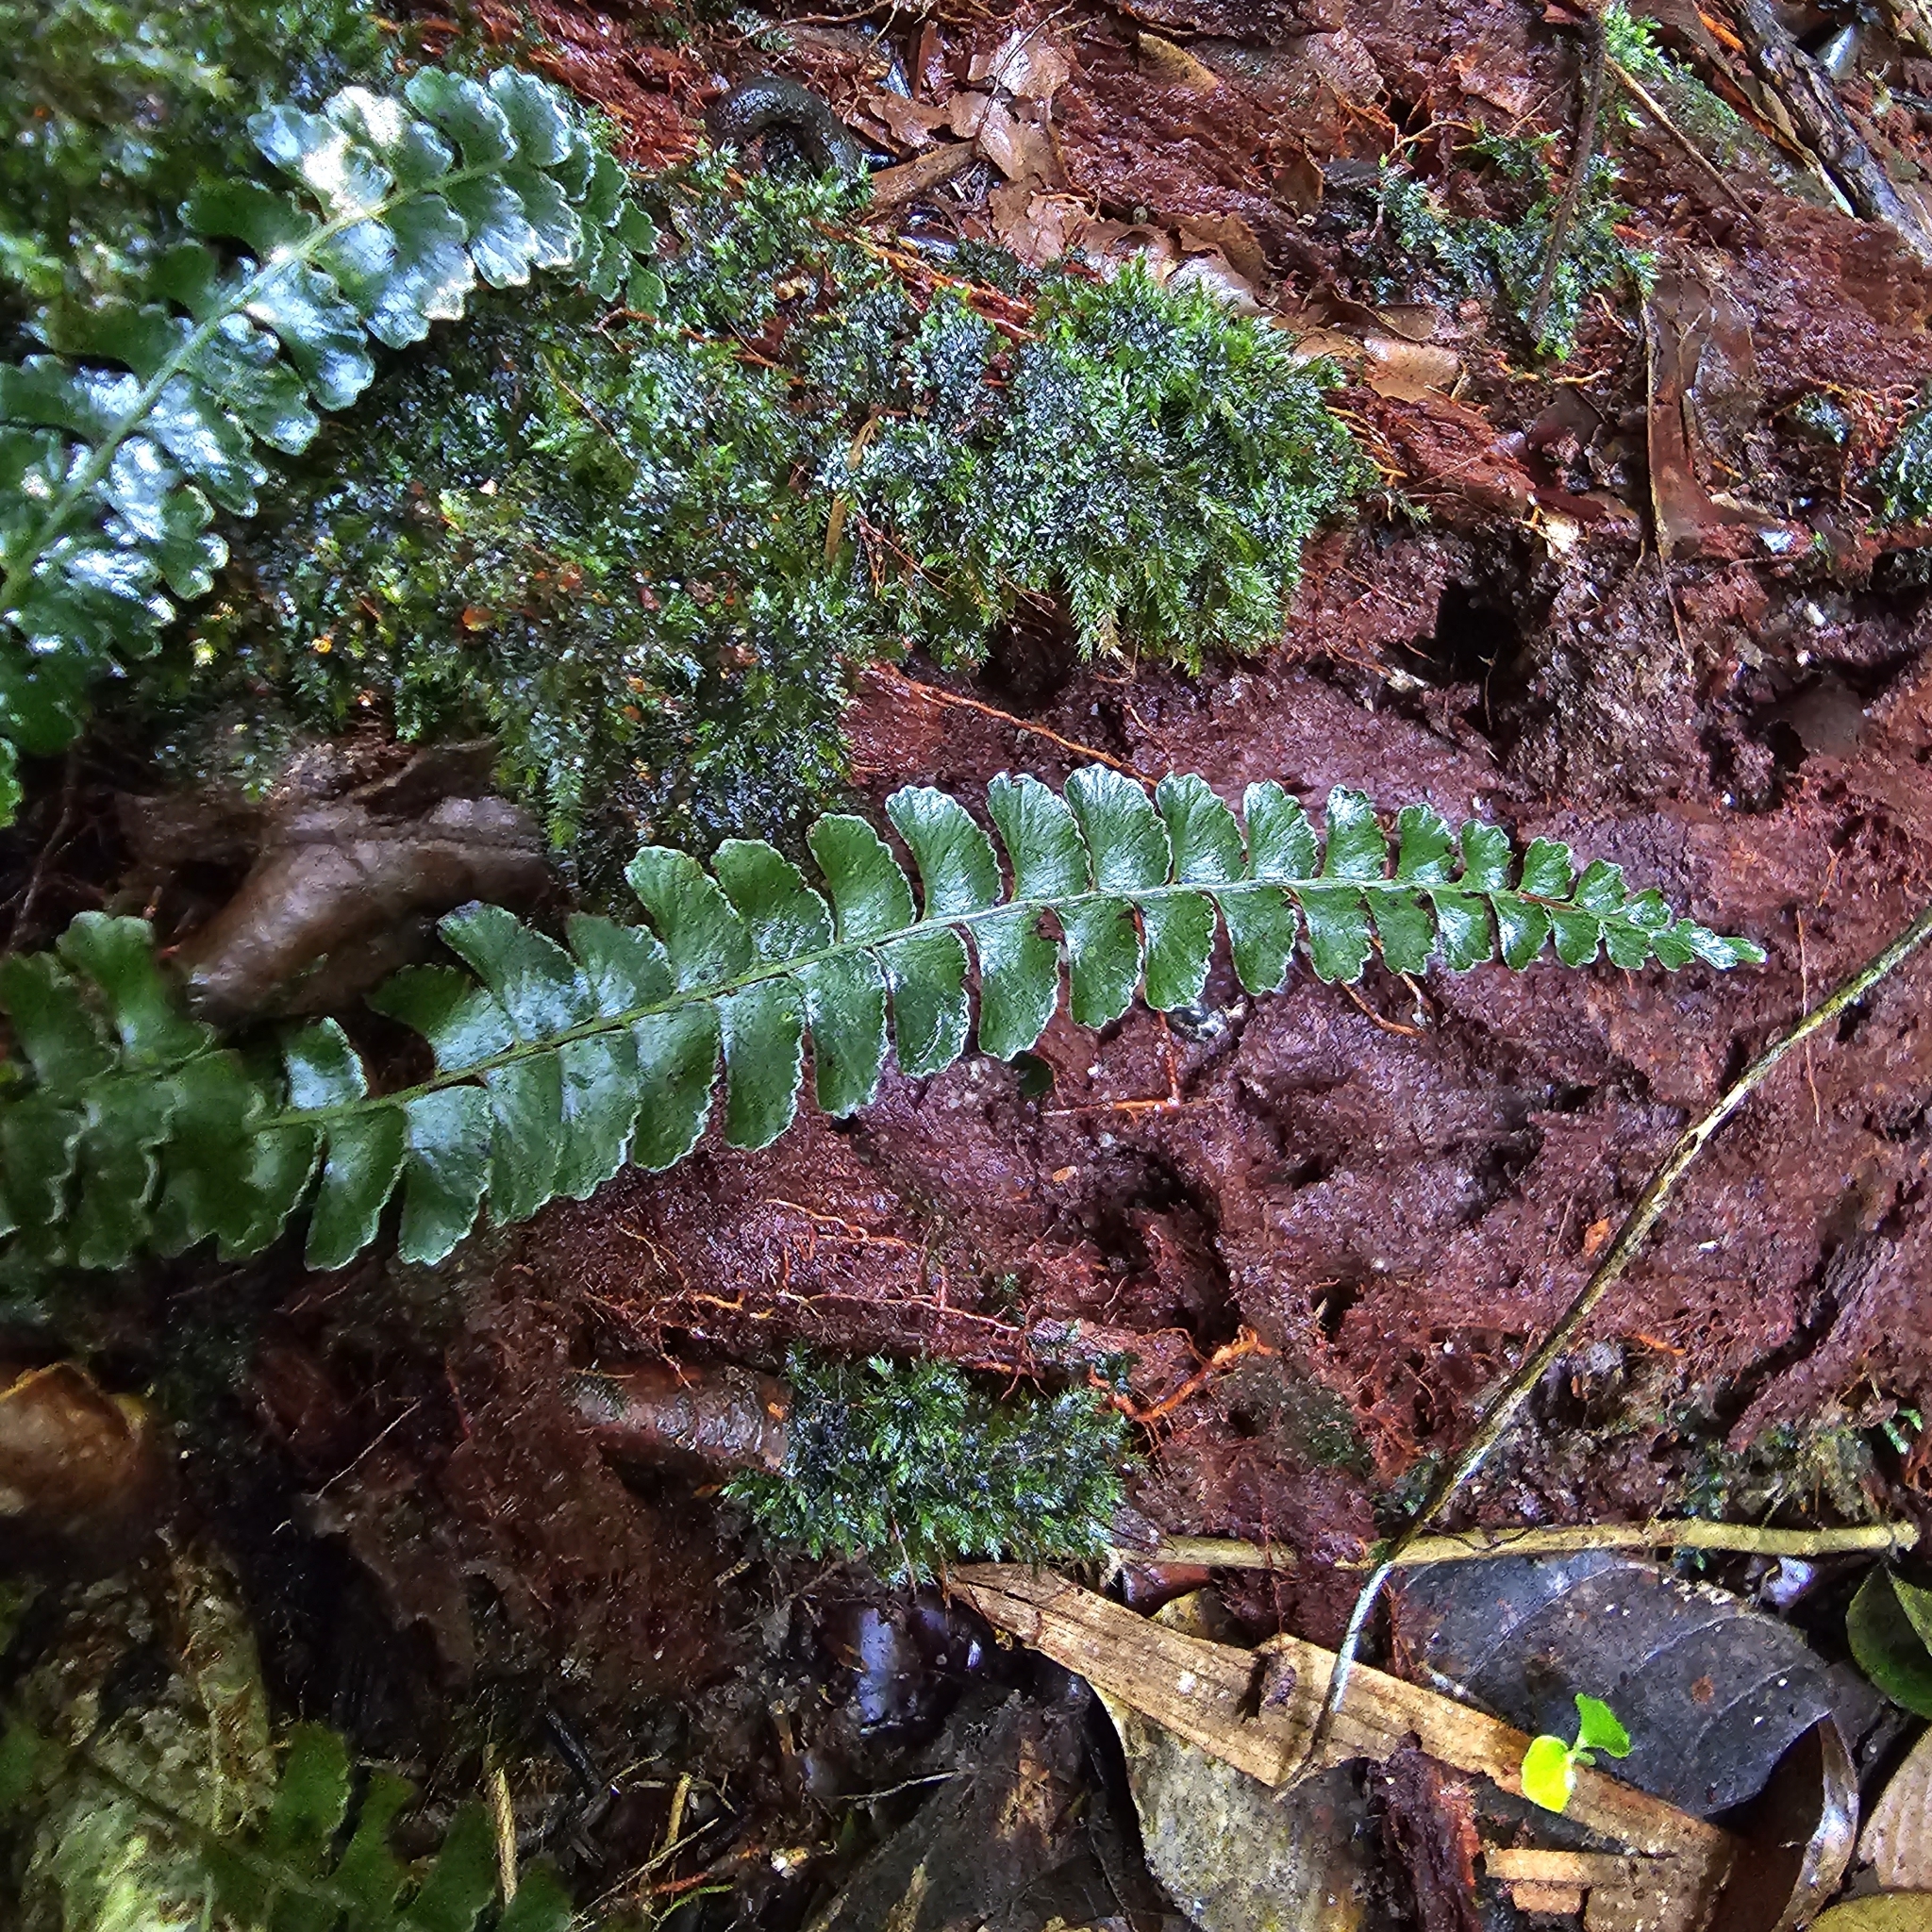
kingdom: Plantae
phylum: Tracheophyta
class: Polypodiopsida
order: Polypodiales
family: Lindsaeaceae
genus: Lindsaea
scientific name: Lindsaea doryphora
